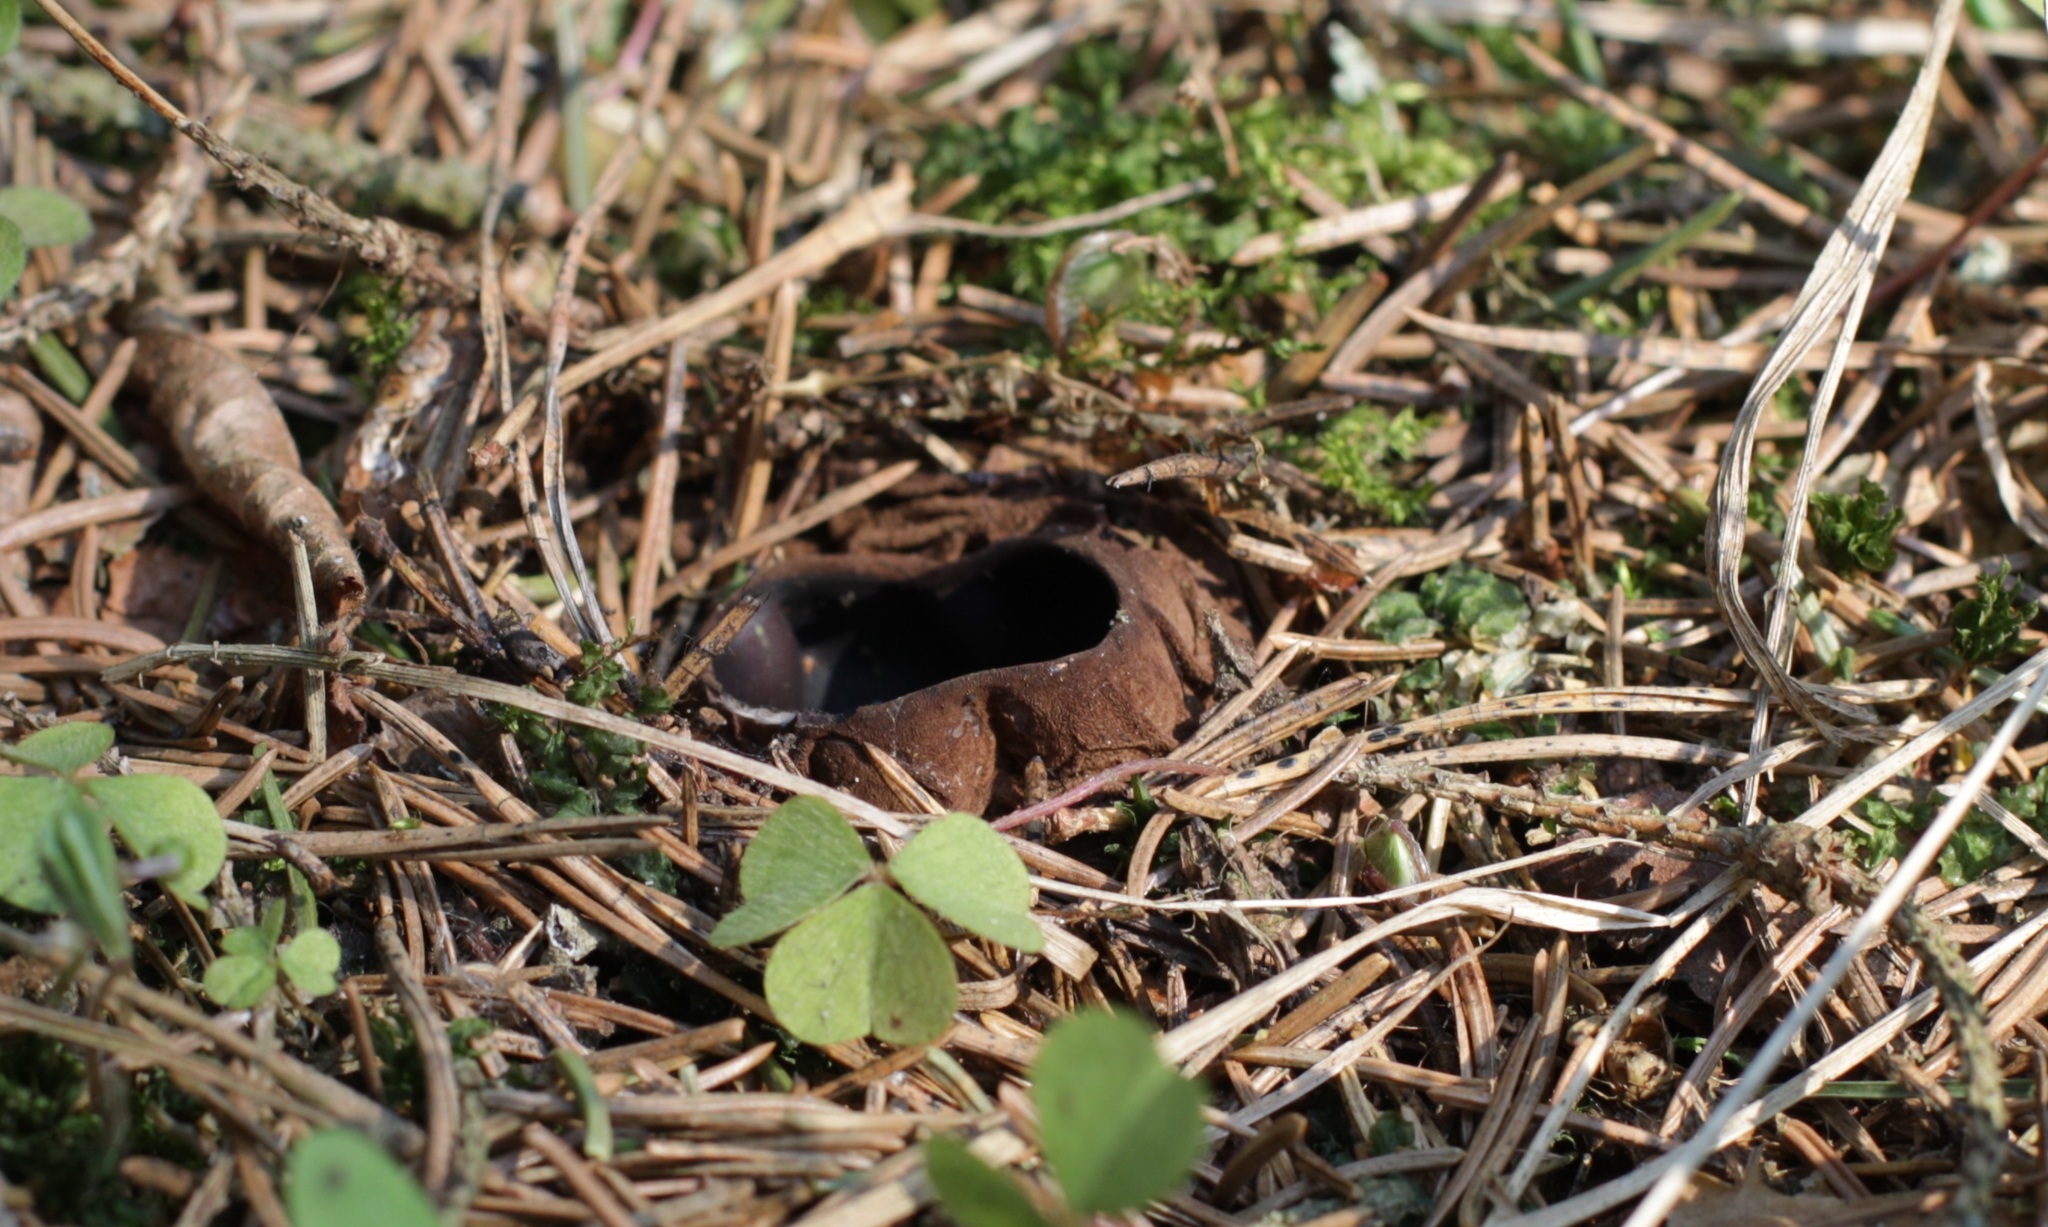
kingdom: Fungi
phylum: Ascomycota
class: Pezizomycetes
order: Pezizales
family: Sarcosomataceae
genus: Sarcosoma
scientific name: Sarcosoma globosum
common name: Charred-pancake cup
